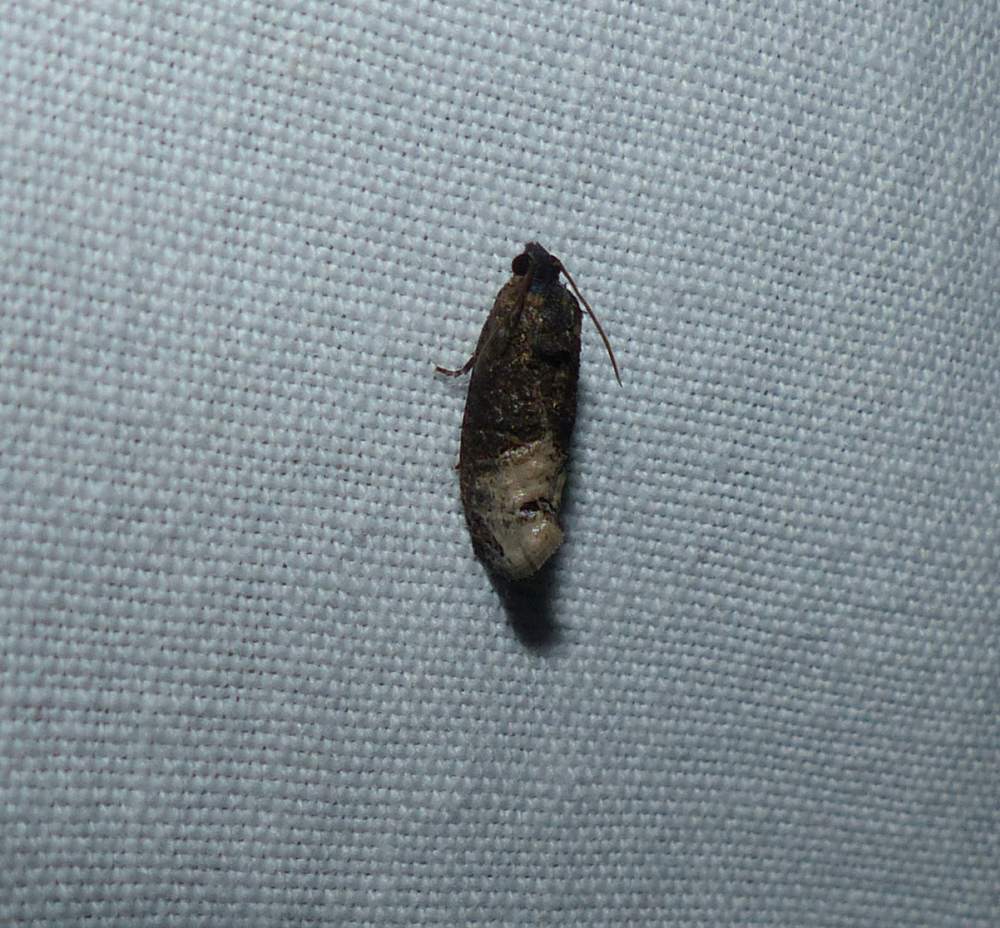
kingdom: Animalia
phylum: Arthropoda
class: Insecta
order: Lepidoptera
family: Tortricidae
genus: Ecdytolopha
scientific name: Ecdytolopha insiticiana
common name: Locust twig borer moth
